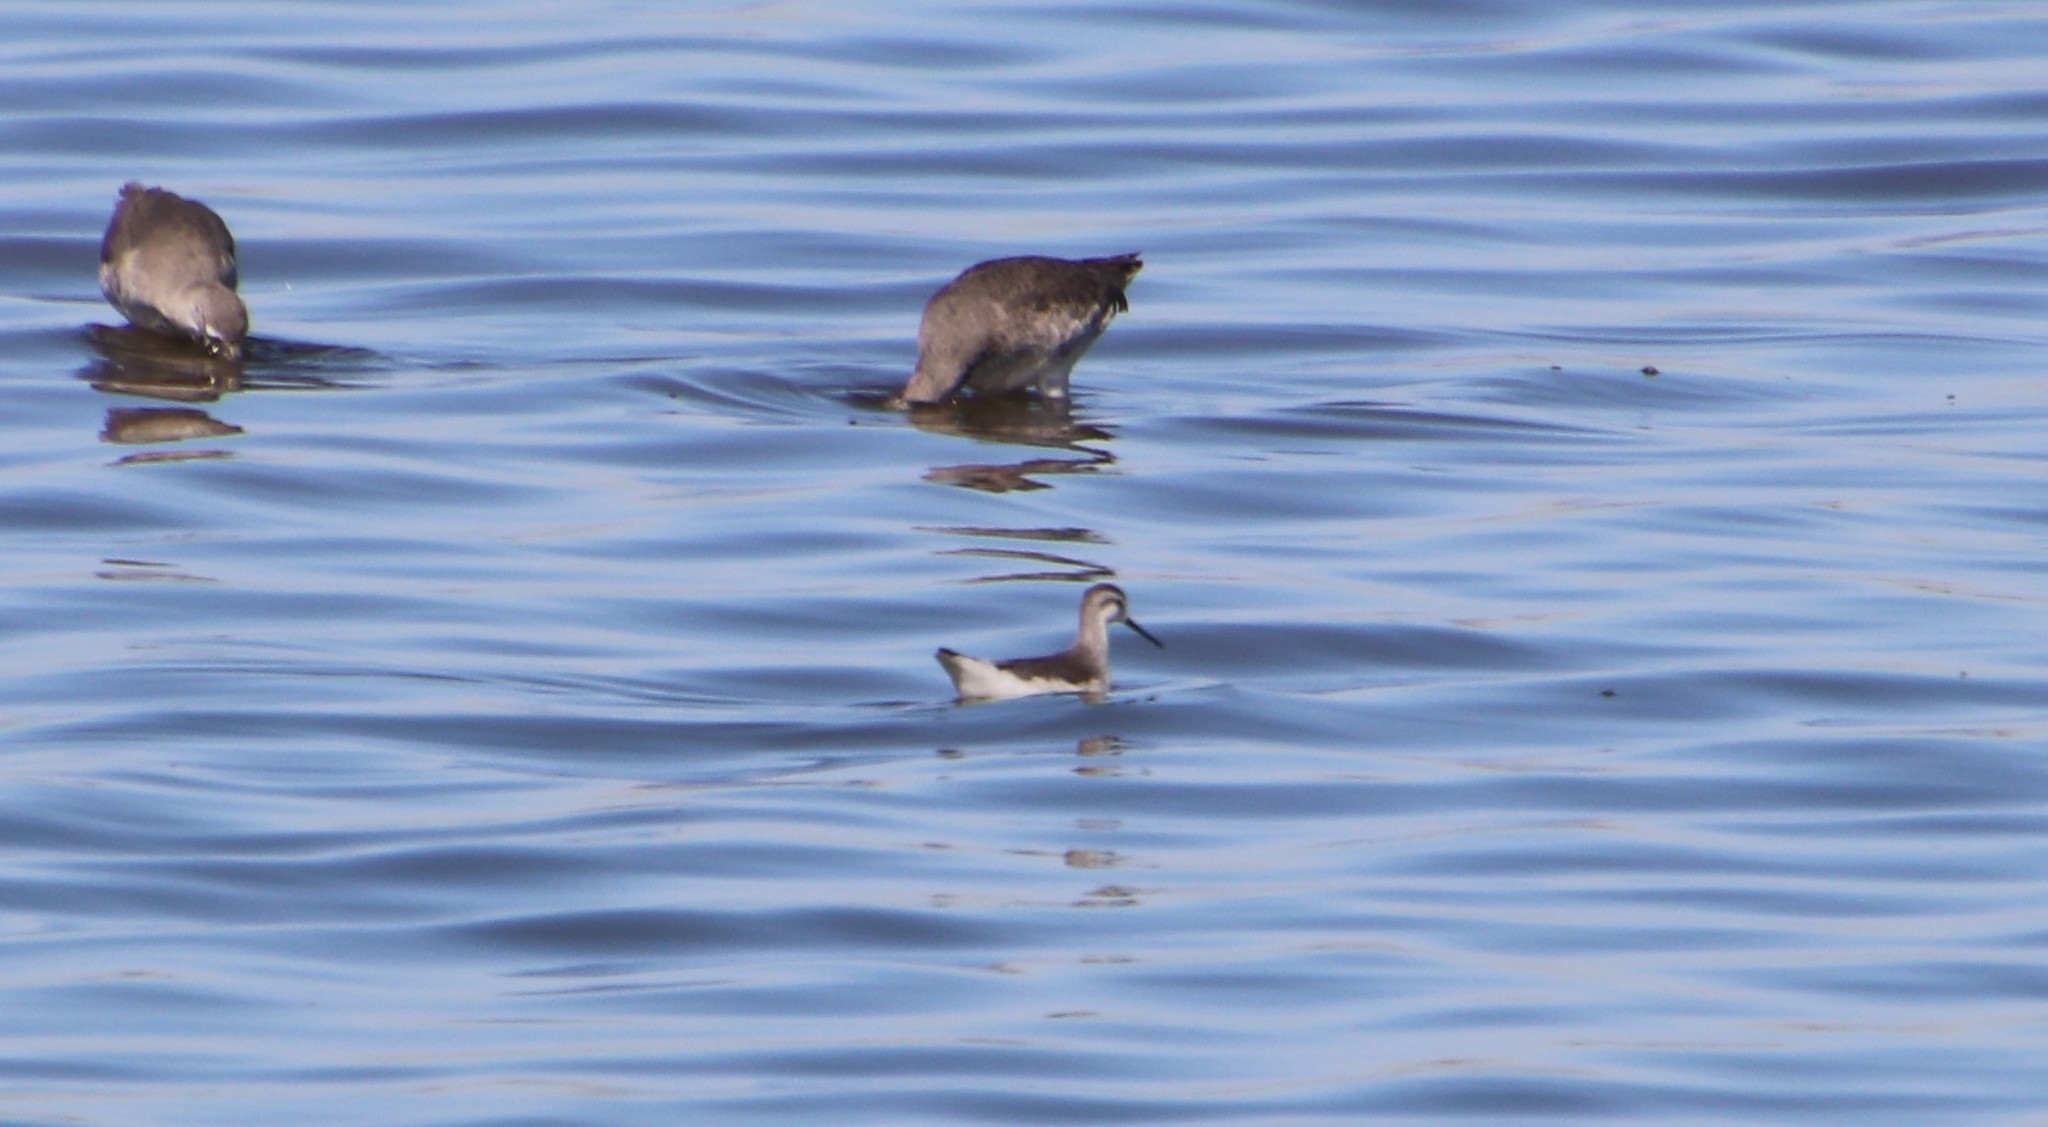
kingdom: Animalia
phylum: Chordata
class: Aves
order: Charadriiformes
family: Scolopacidae
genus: Phalaropus
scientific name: Phalaropus tricolor
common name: Wilson's phalarope
